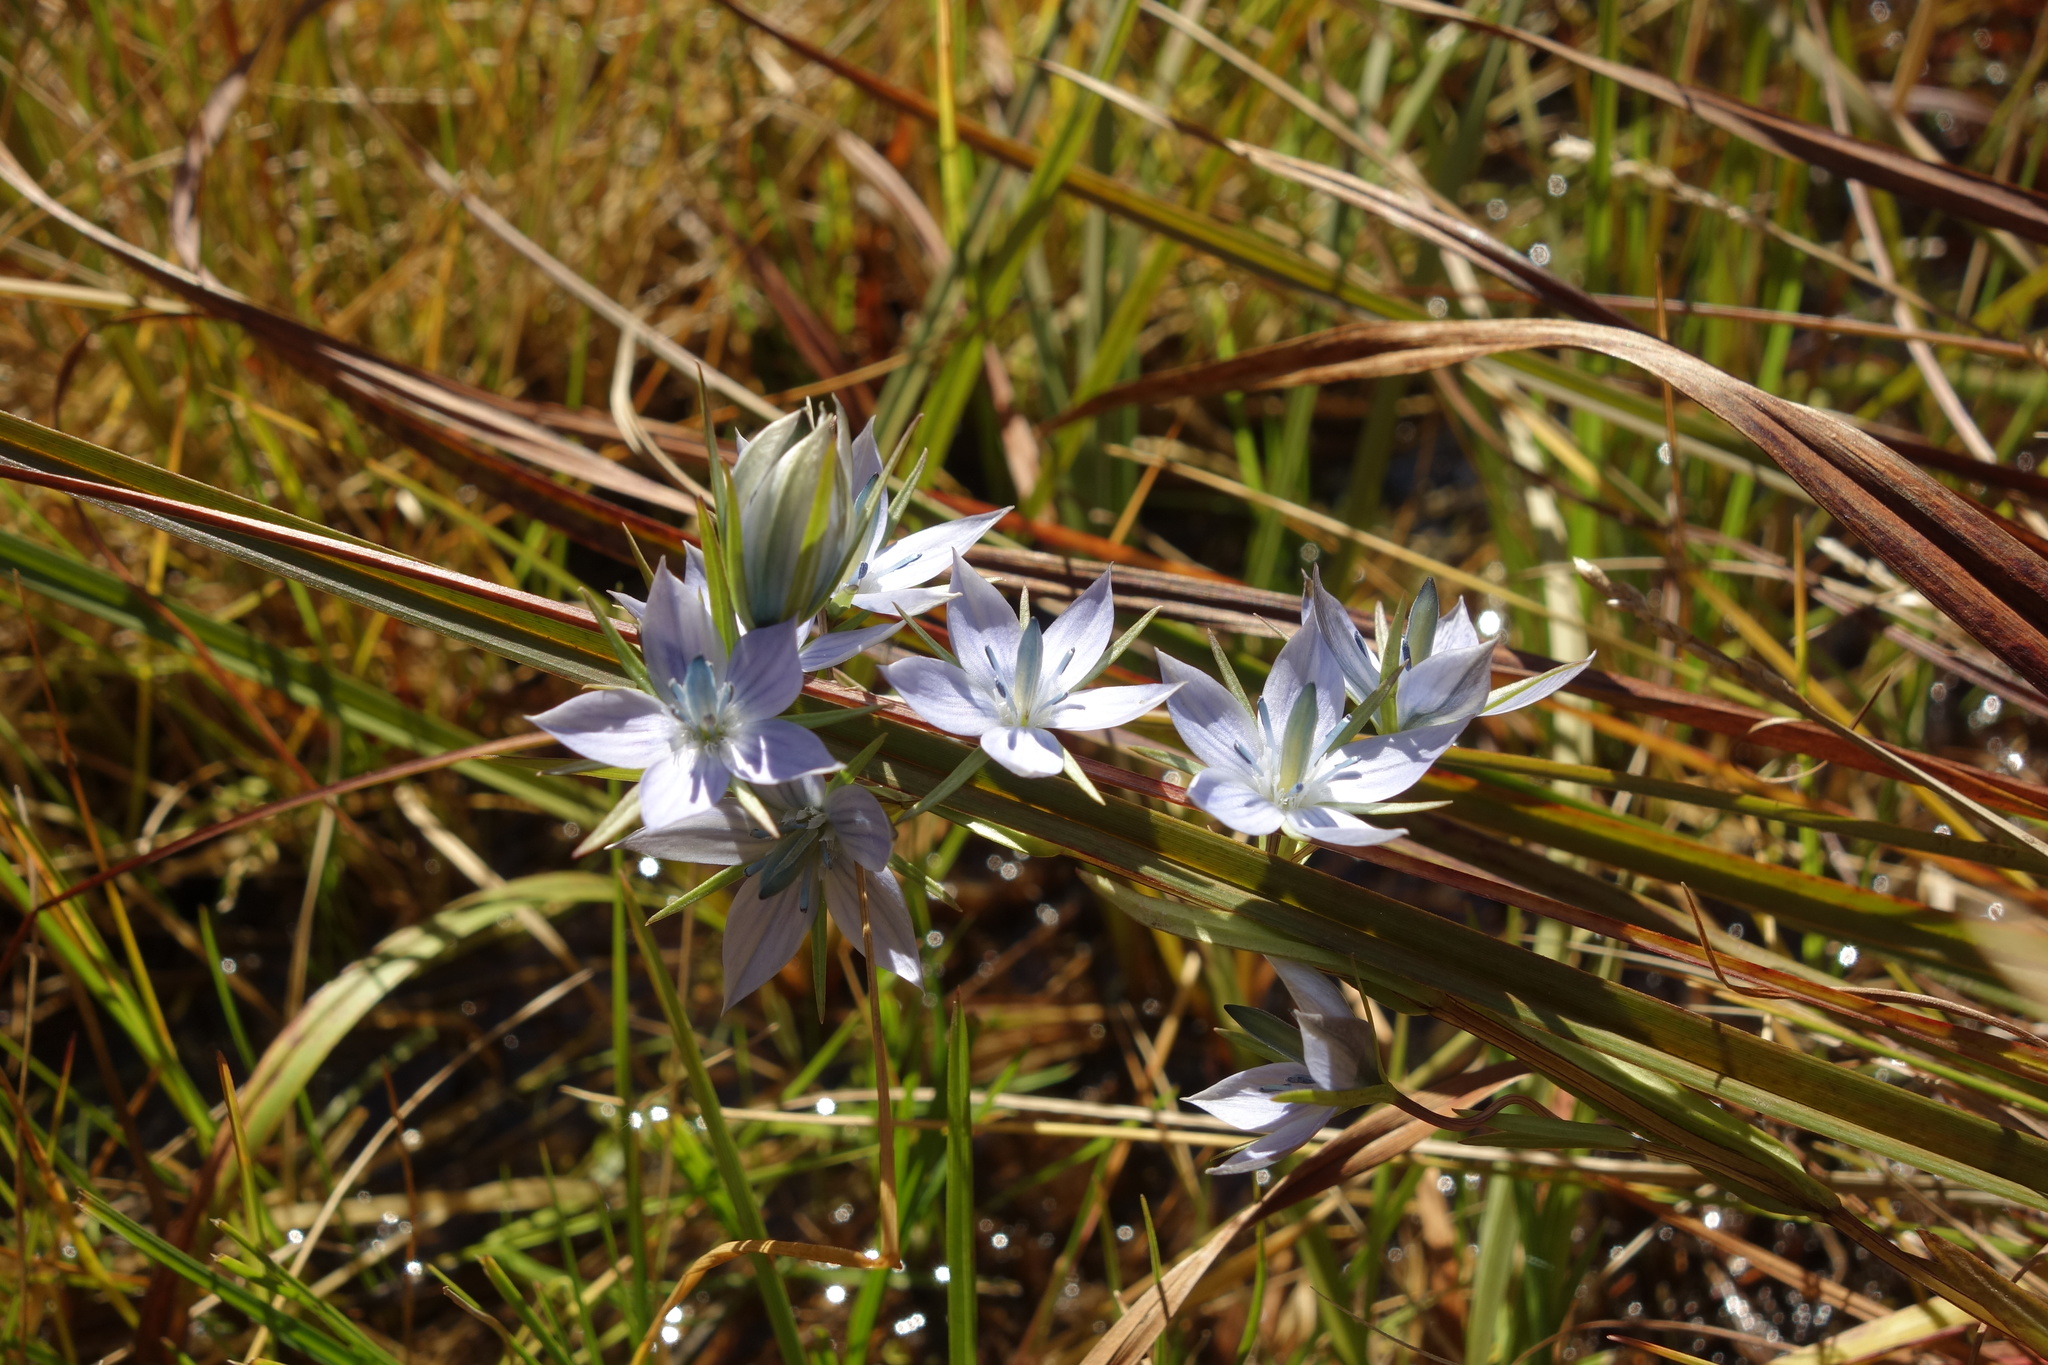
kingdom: Plantae
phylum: Tracheophyta
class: Magnoliopsida
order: Gentianales
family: Gentianaceae
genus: Lomatogonium
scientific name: Lomatogonium rotatum
